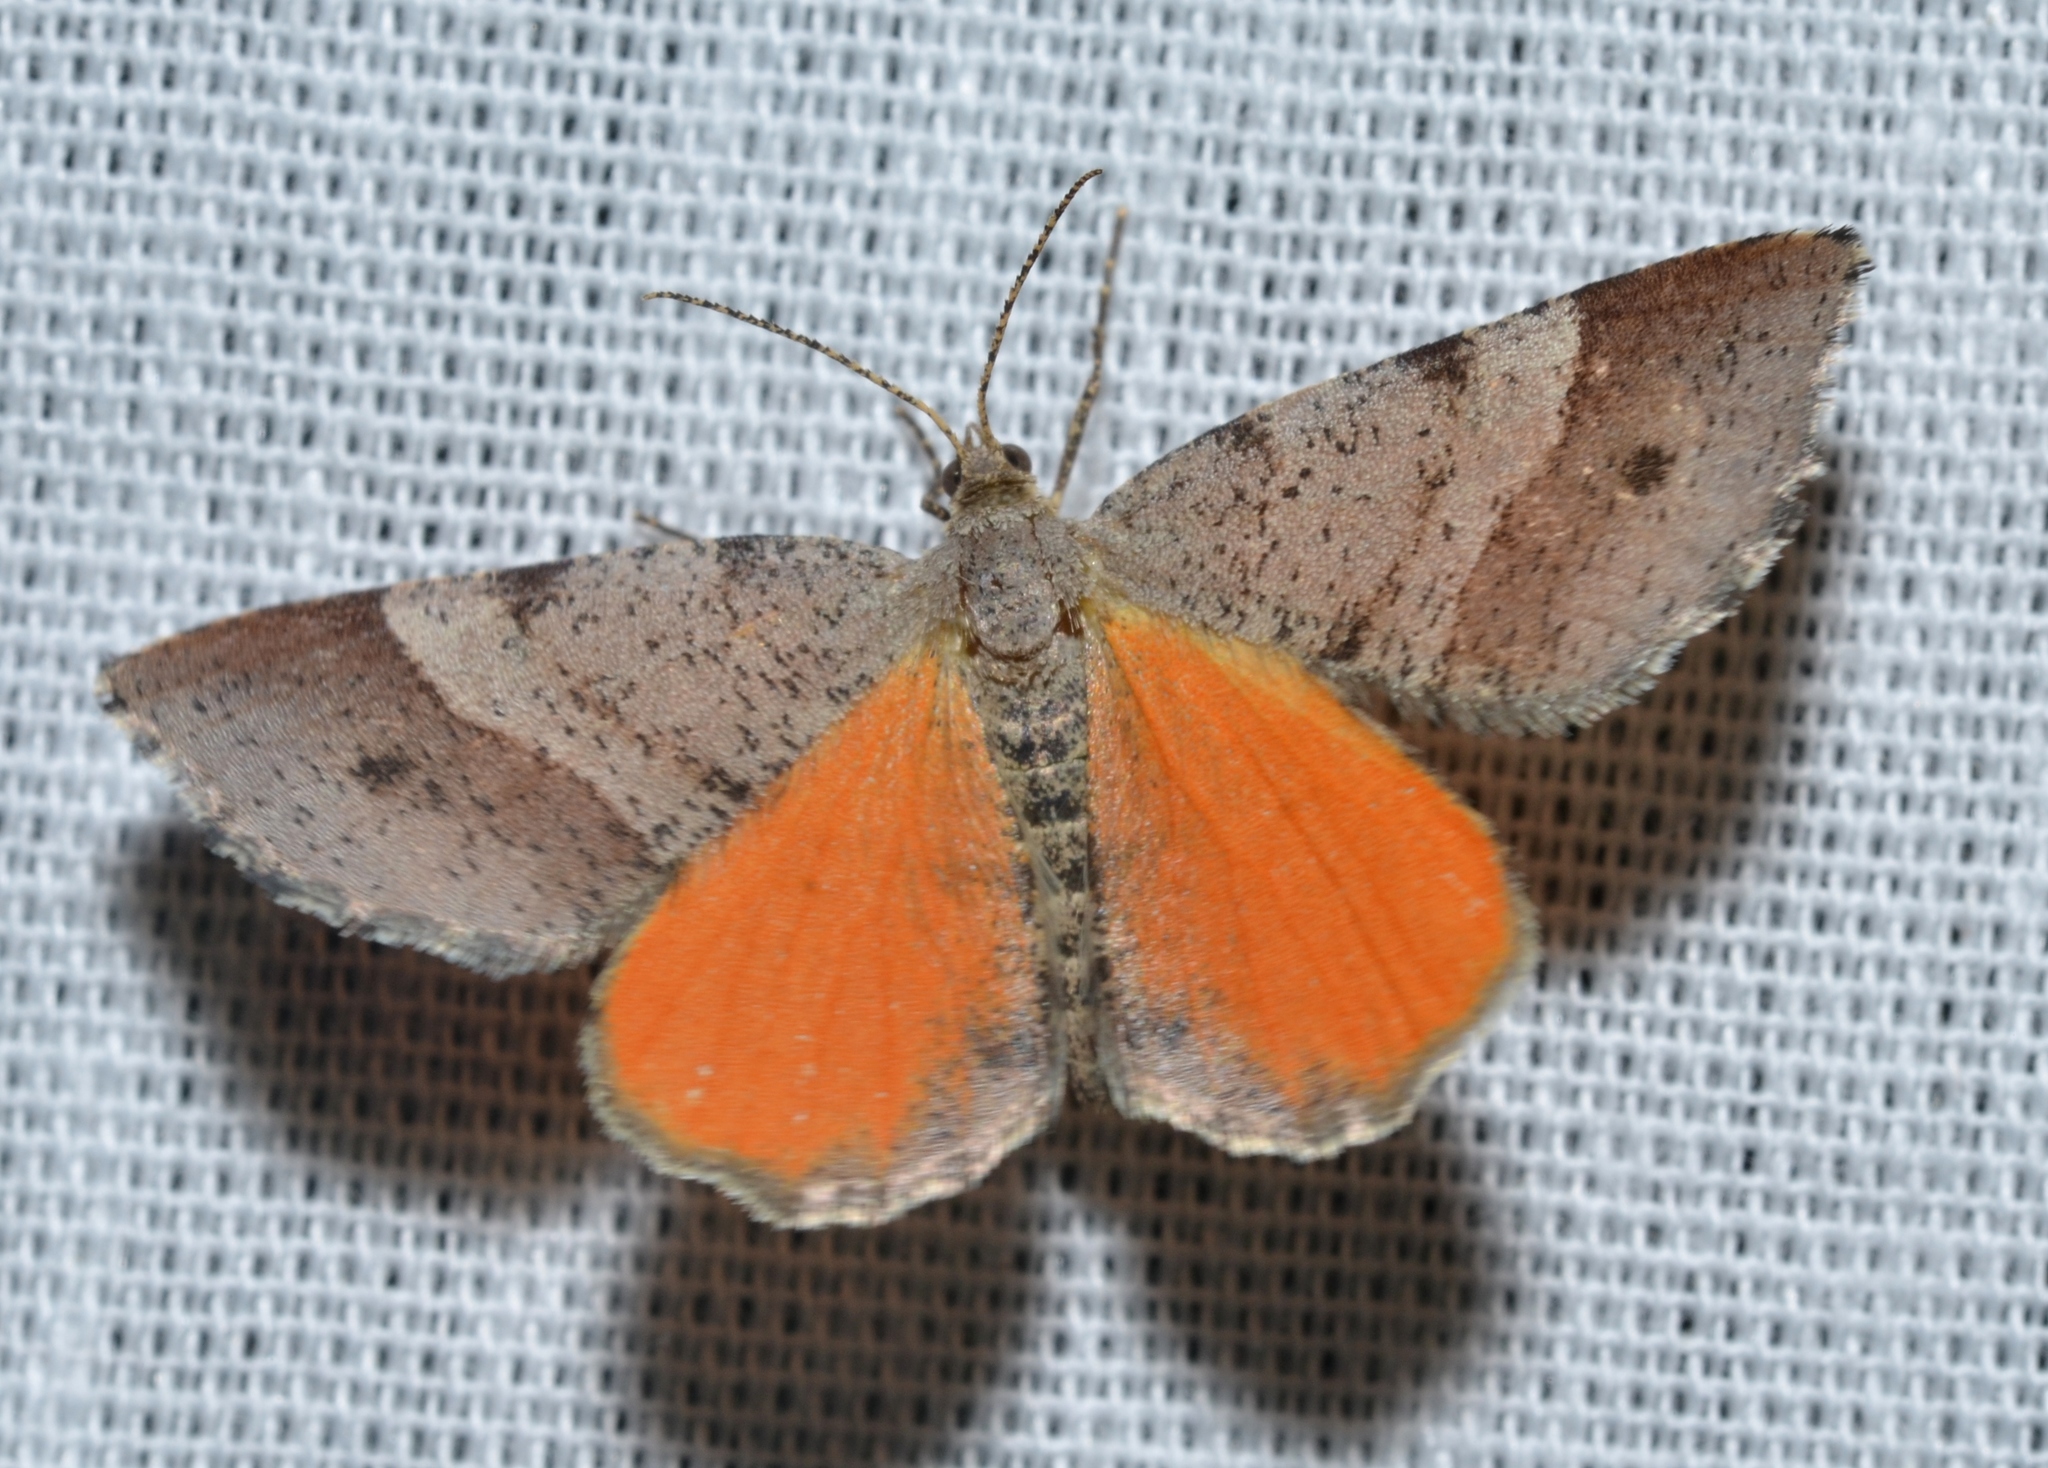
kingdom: Animalia
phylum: Arthropoda
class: Insecta
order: Lepidoptera
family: Geometridae
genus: Mellilla
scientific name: Mellilla xanthometata
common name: Orange wing moth
